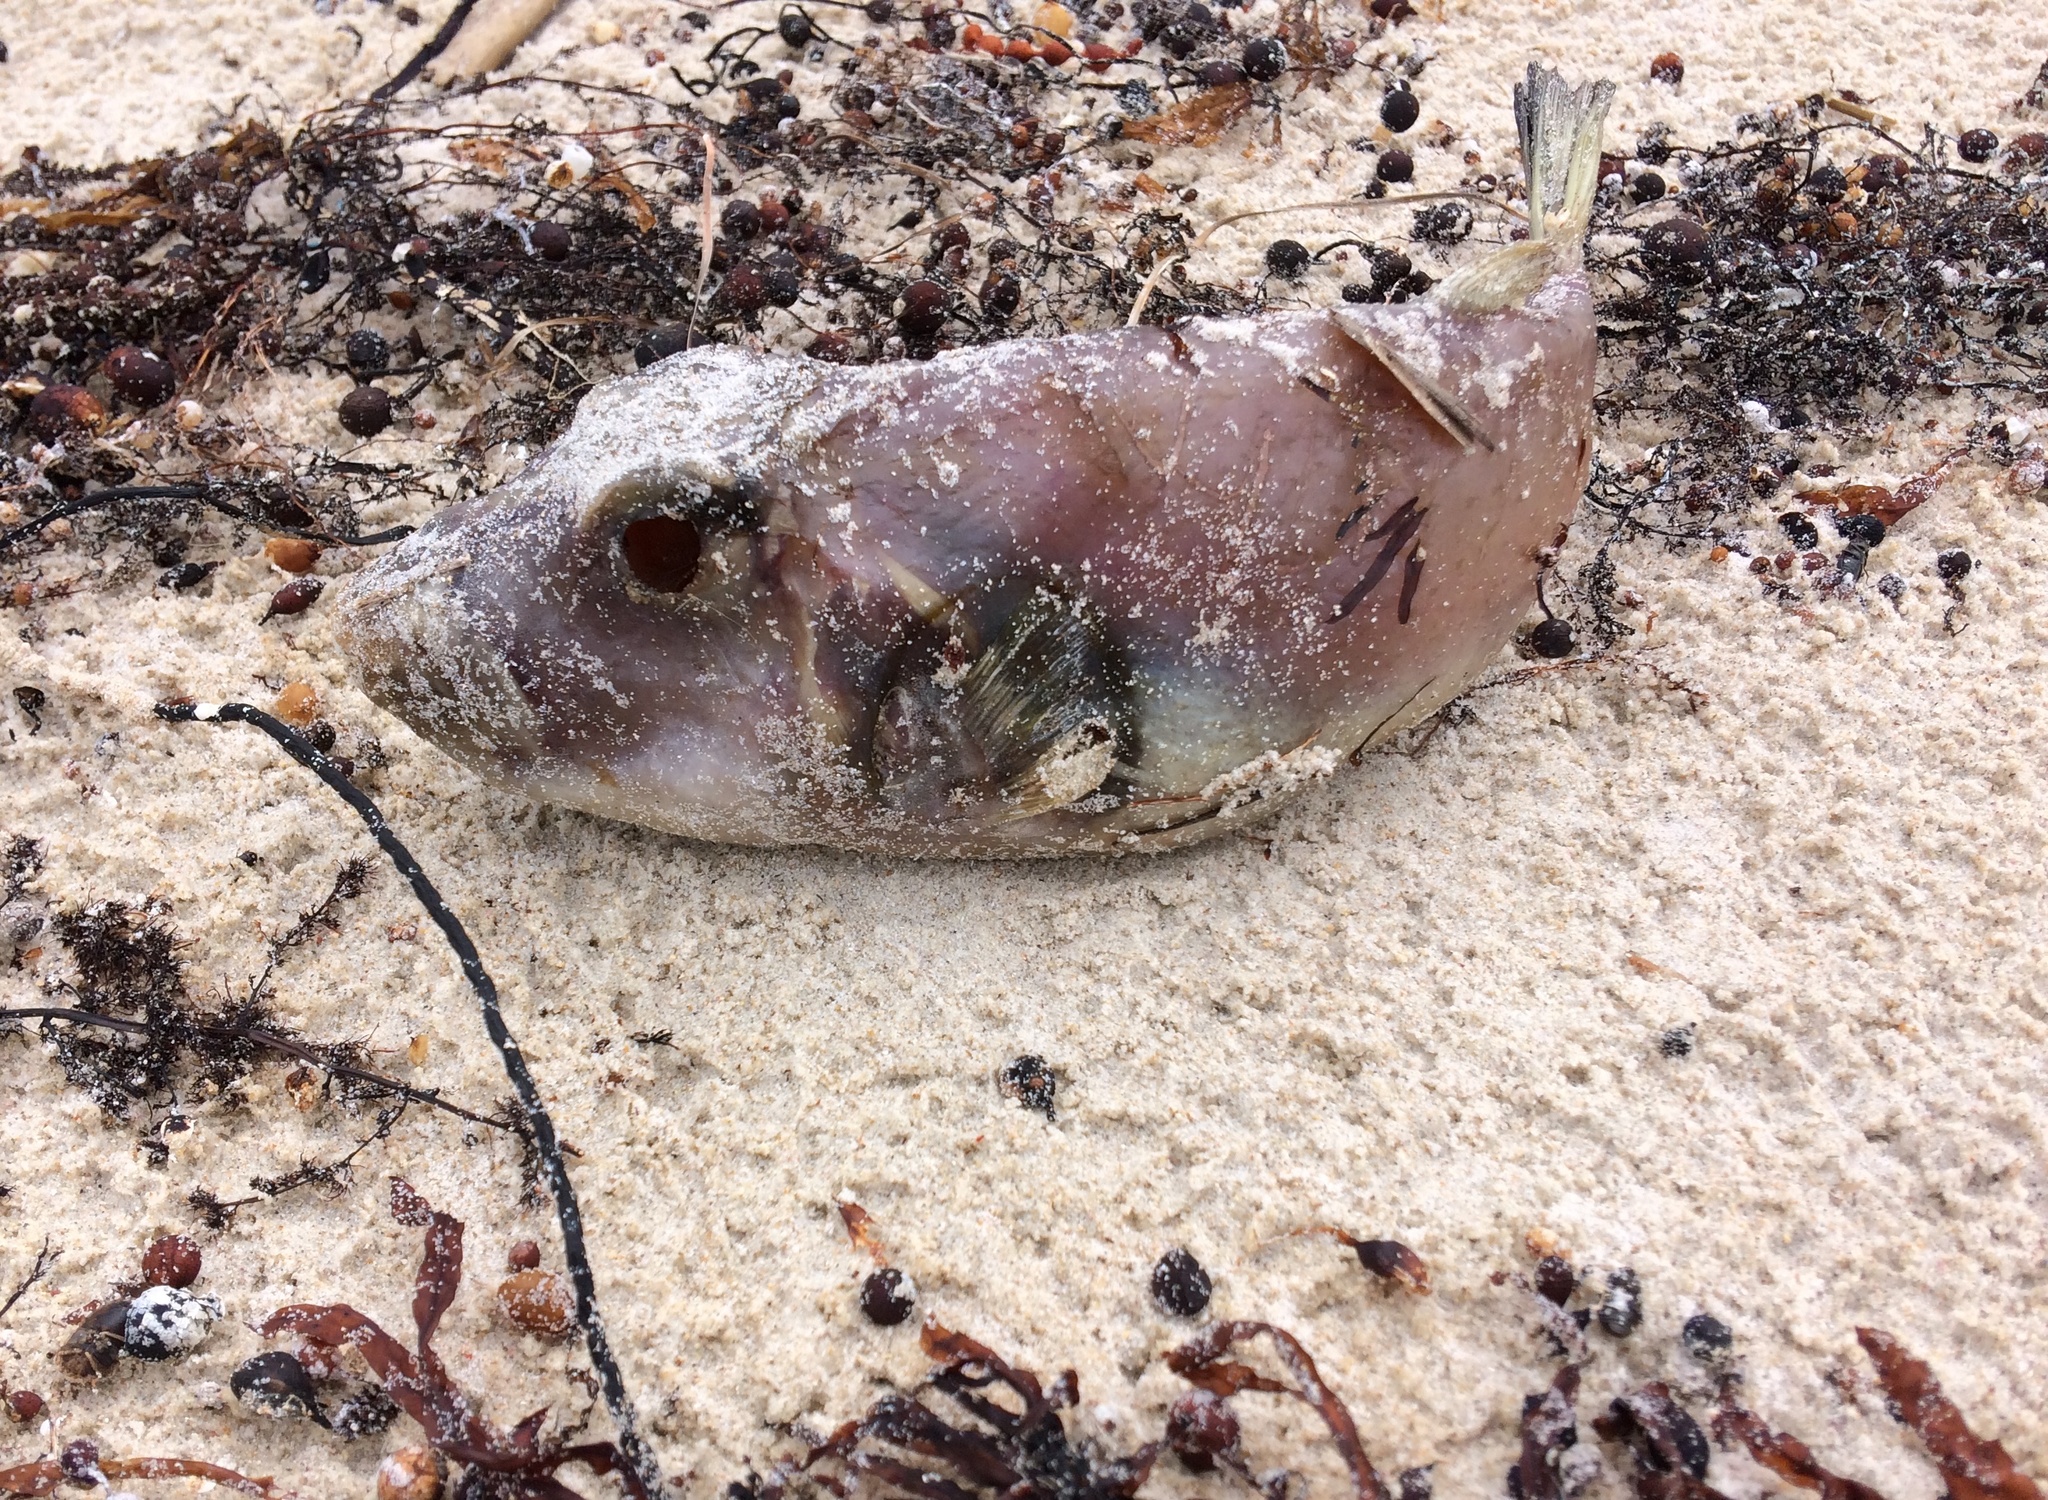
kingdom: Animalia
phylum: Chordata
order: Tetraodontiformes
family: Tetraodontidae
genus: Omegophora
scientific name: Omegophora armilla
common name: Ringed pufferfish
